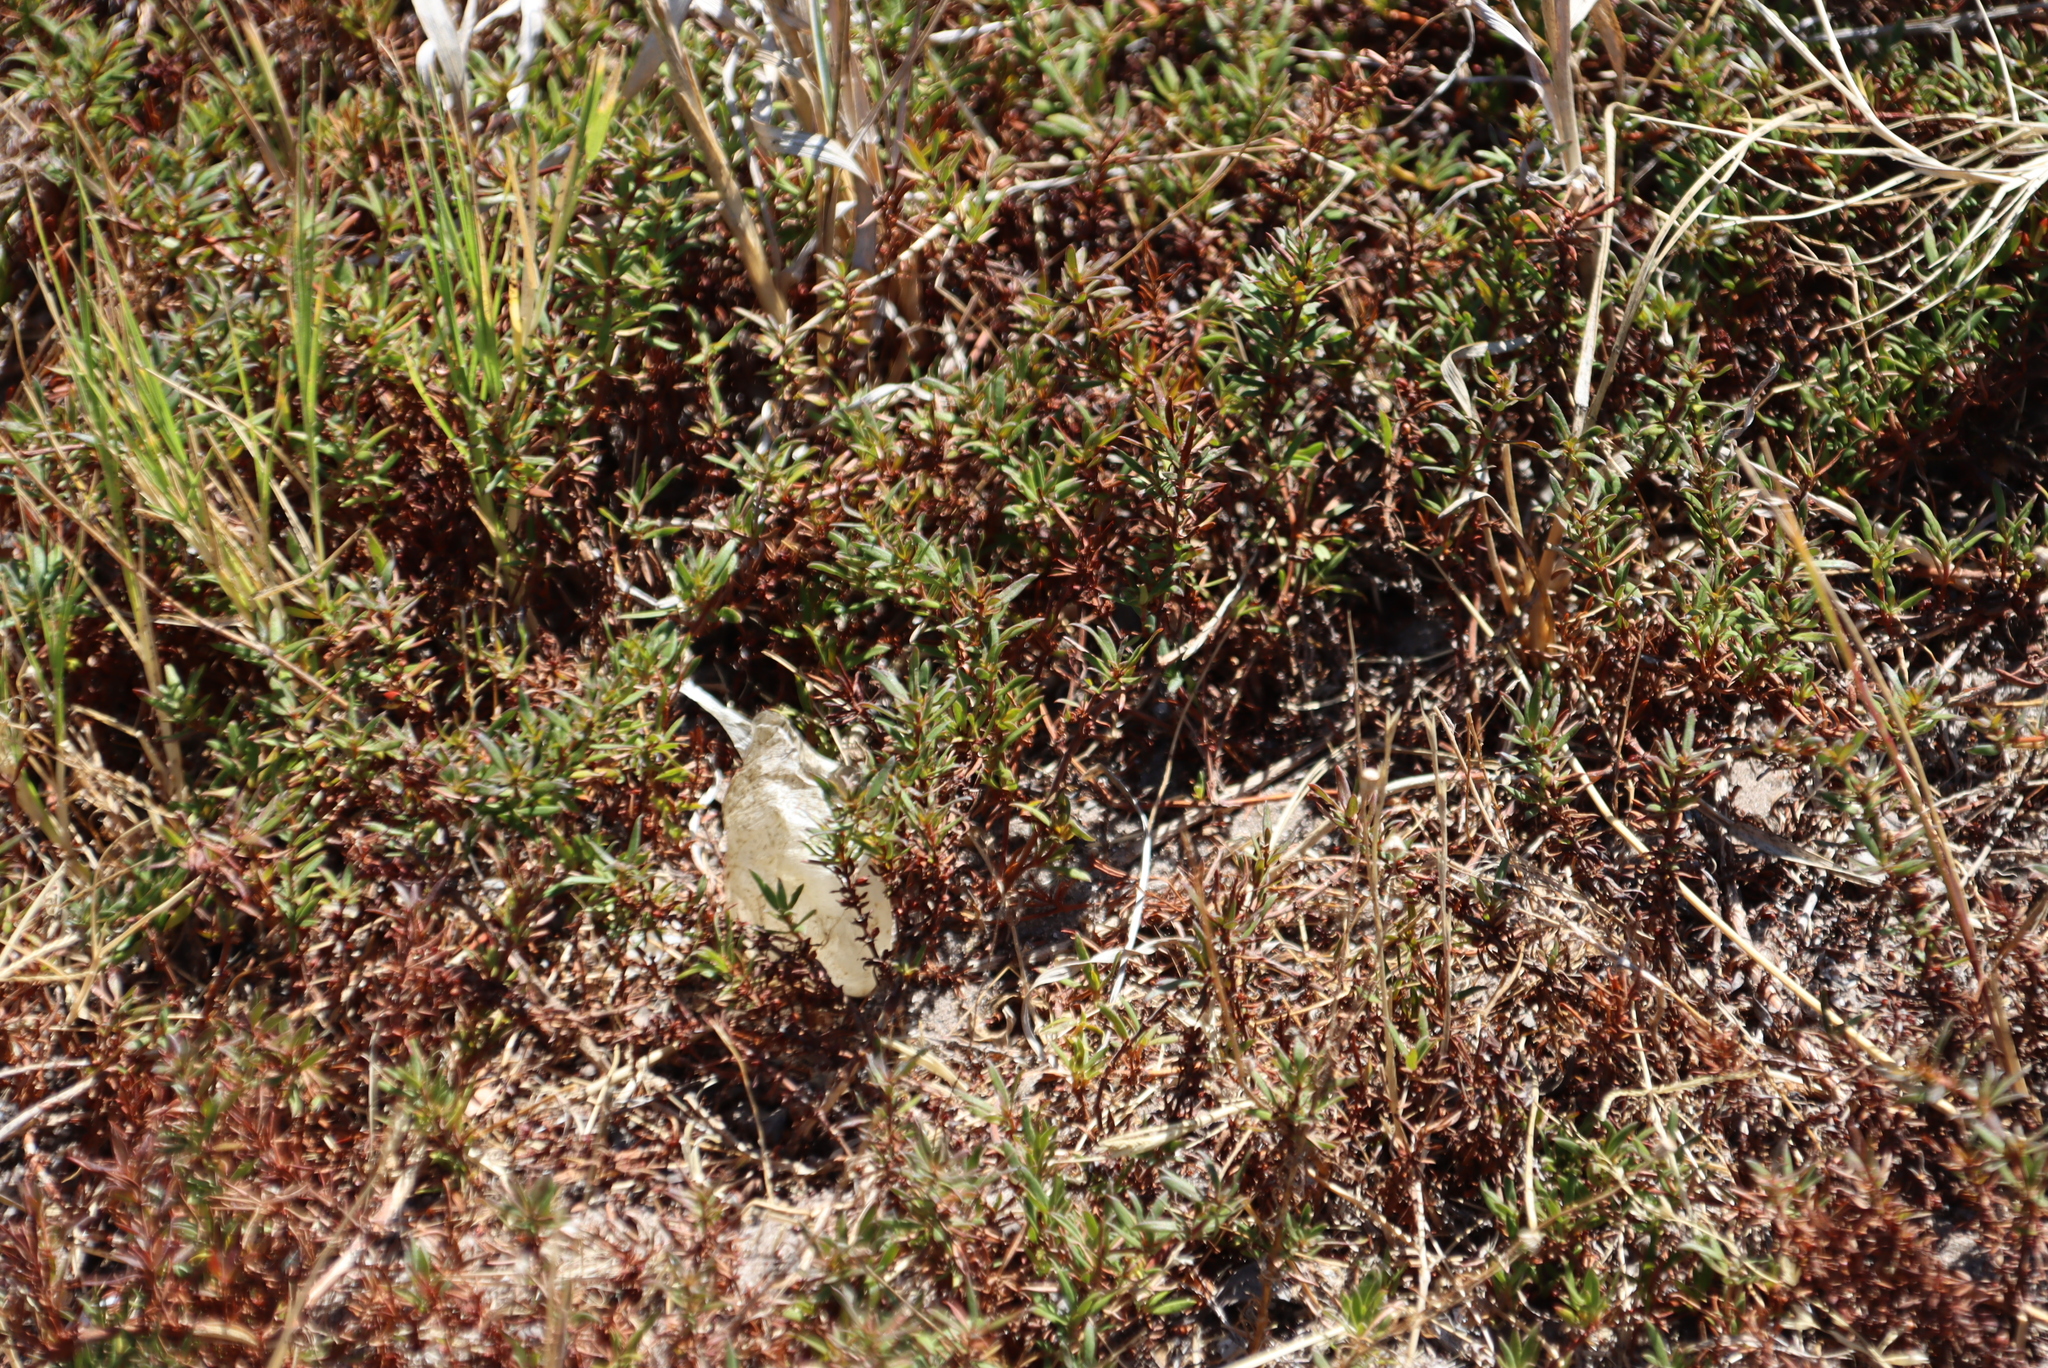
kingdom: Plantae
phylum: Tracheophyta
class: Magnoliopsida
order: Gentianales
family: Rubiaceae
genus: Anthospermum
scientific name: Anthospermum prostratum
